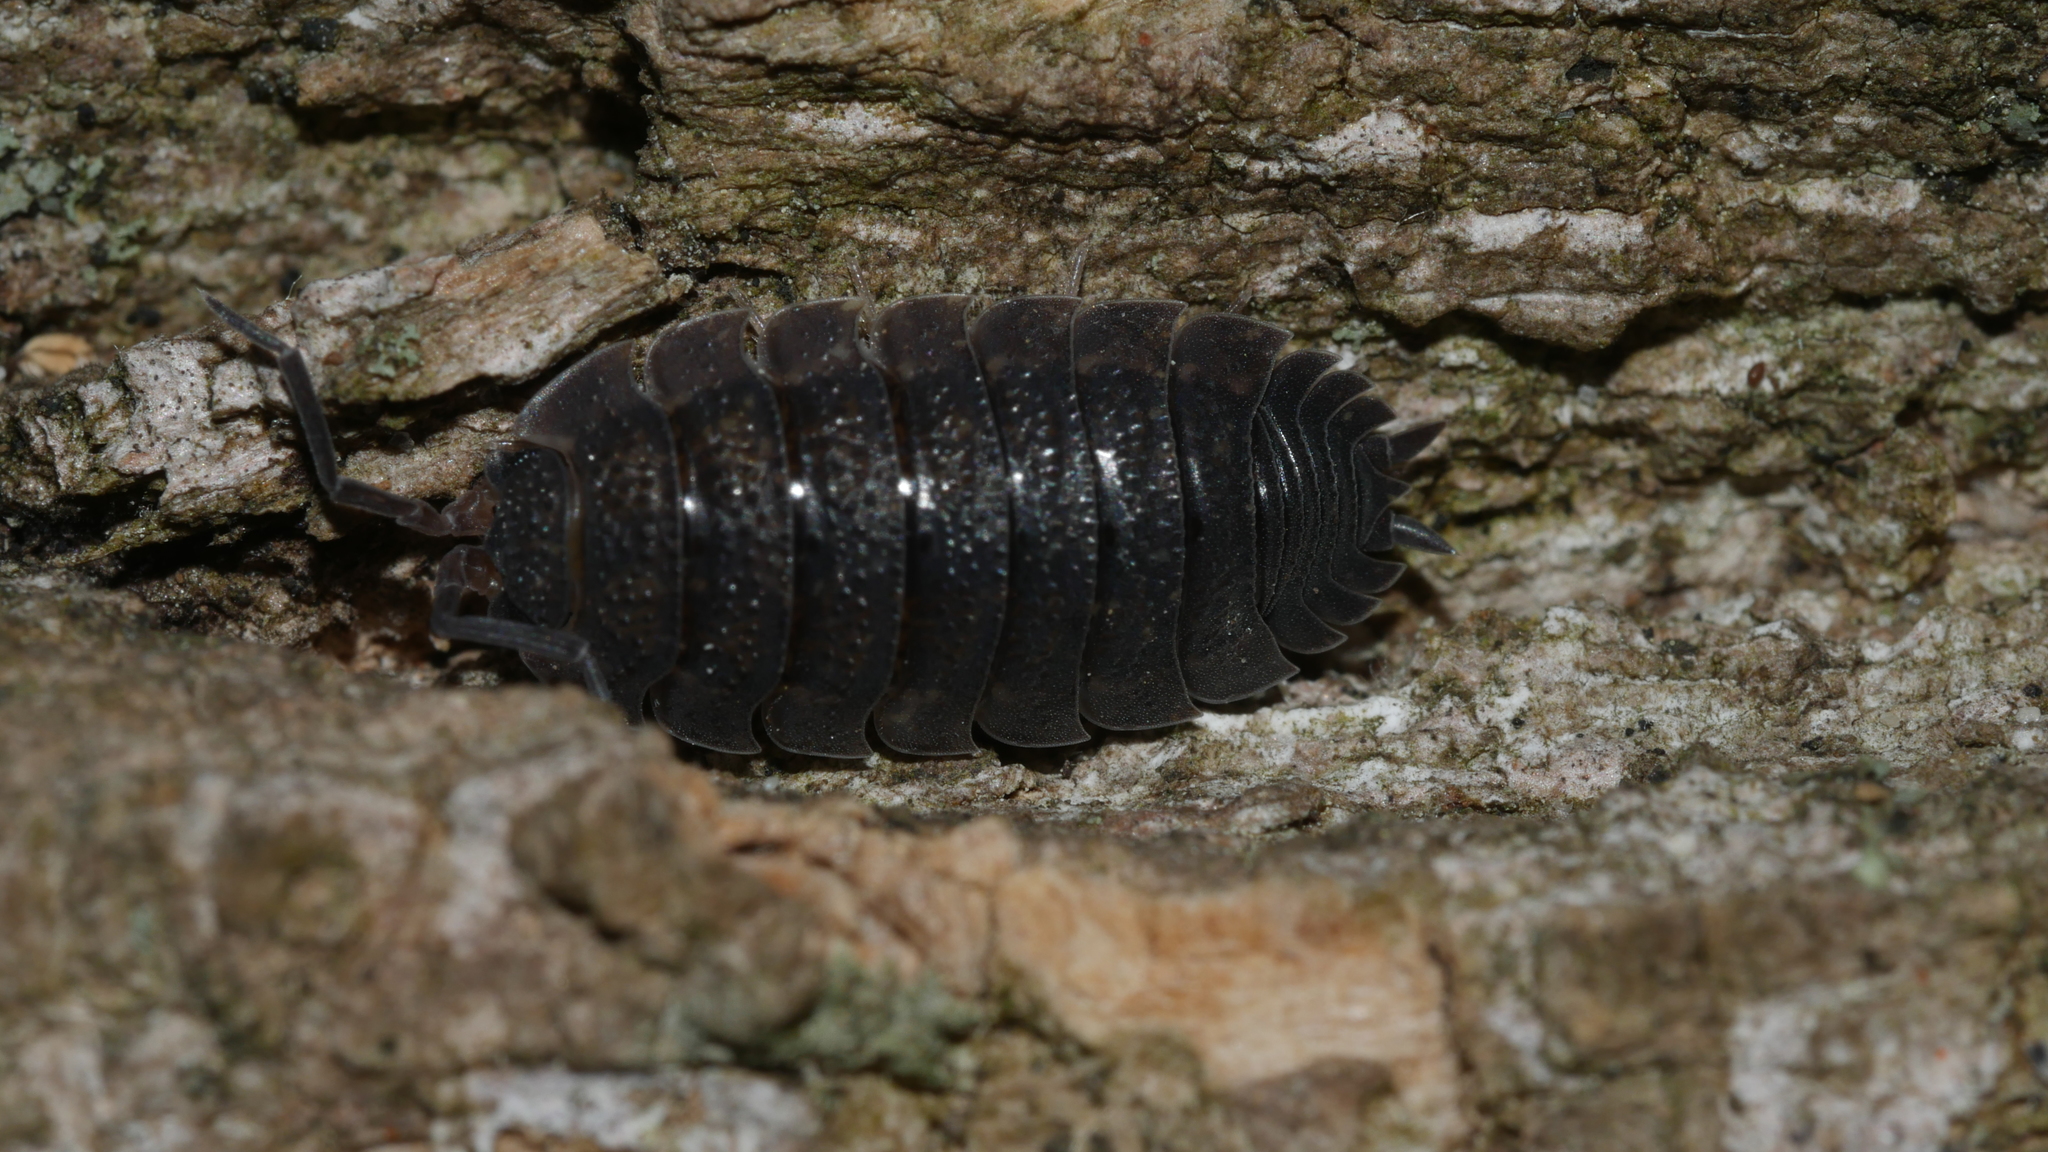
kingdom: Animalia
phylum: Arthropoda
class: Malacostraca
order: Isopoda
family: Porcellionidae
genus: Porcellio
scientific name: Porcellio scaber
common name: Common rough woodlouse
